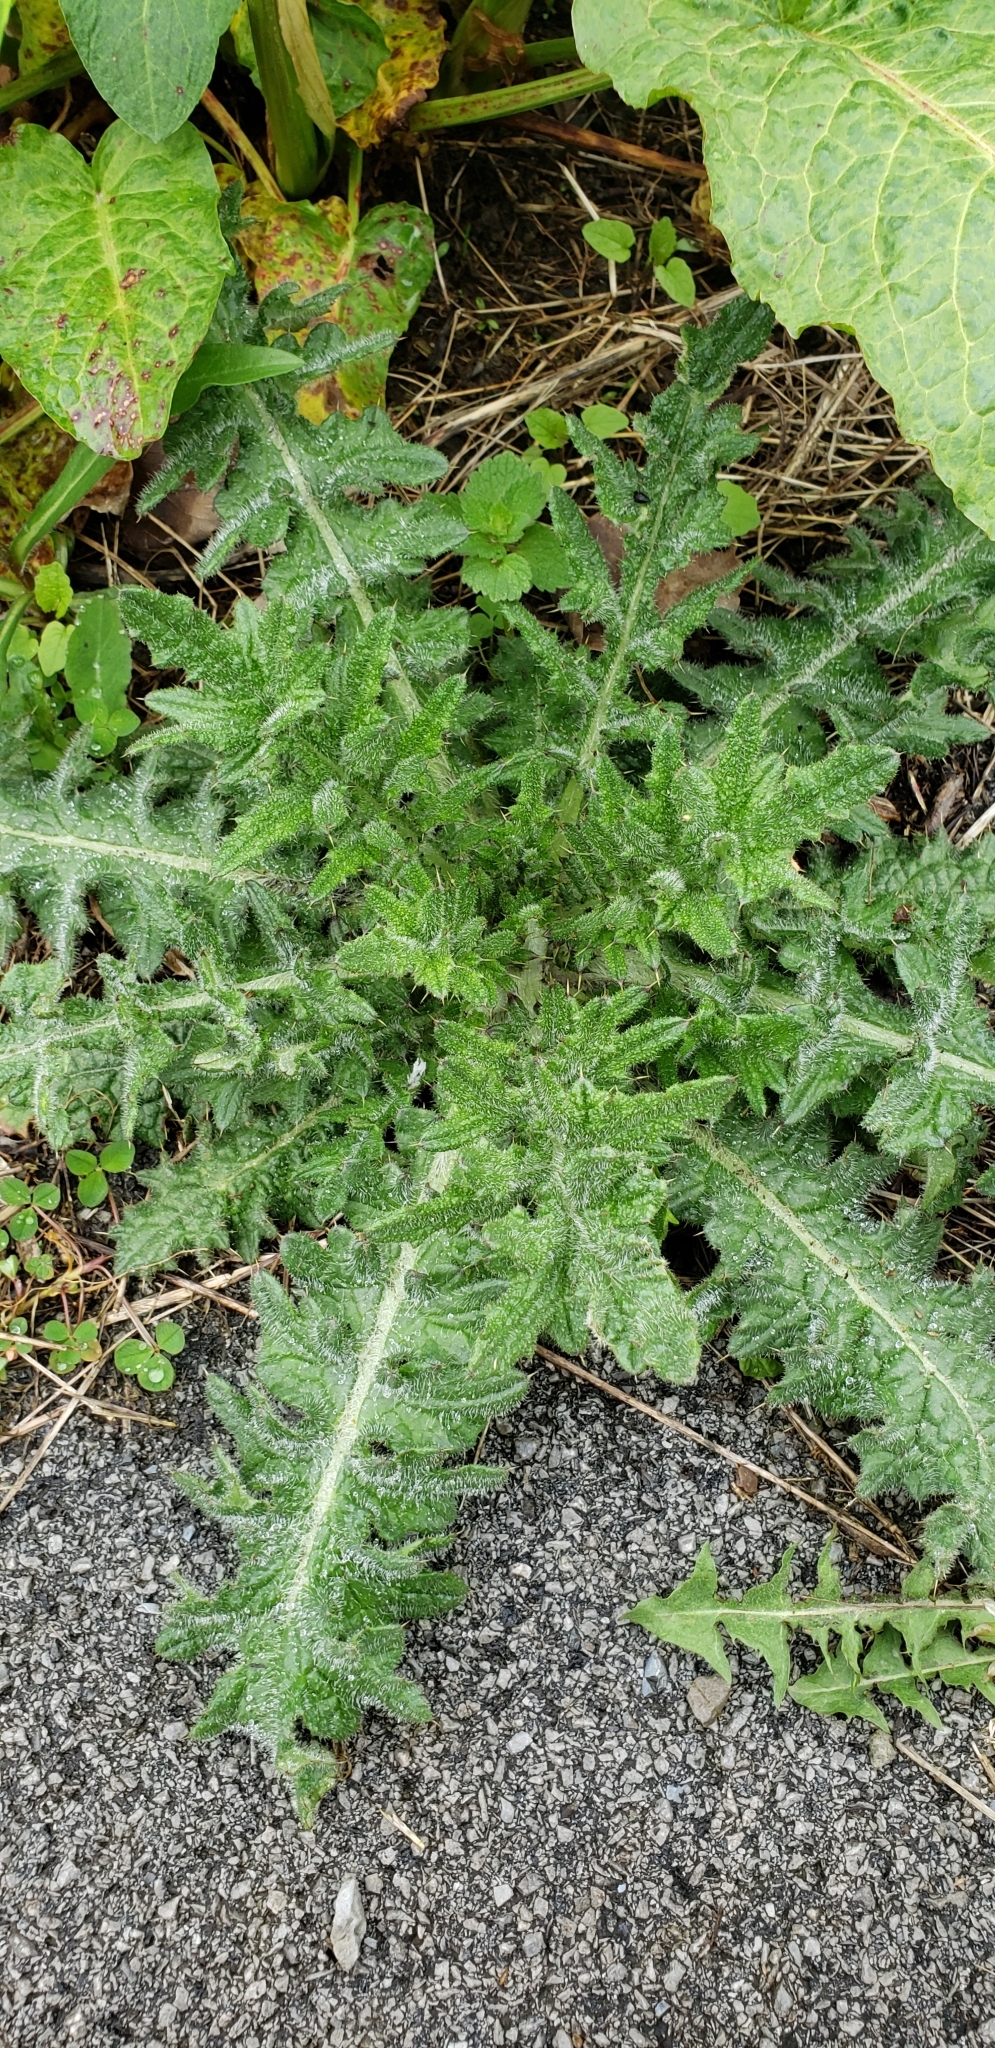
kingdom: Plantae
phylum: Tracheophyta
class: Magnoliopsida
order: Asterales
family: Asteraceae
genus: Cirsium
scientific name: Cirsium vulgare
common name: Bull thistle
